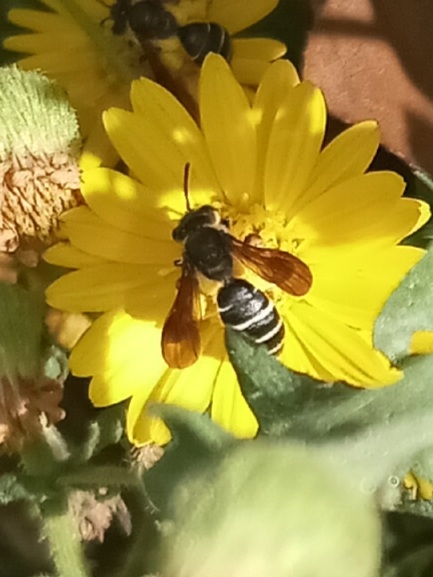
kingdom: Animalia
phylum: Arthropoda
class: Insecta
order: Hymenoptera
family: Andrenidae
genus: Andrena
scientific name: Andrena fulvipennis
